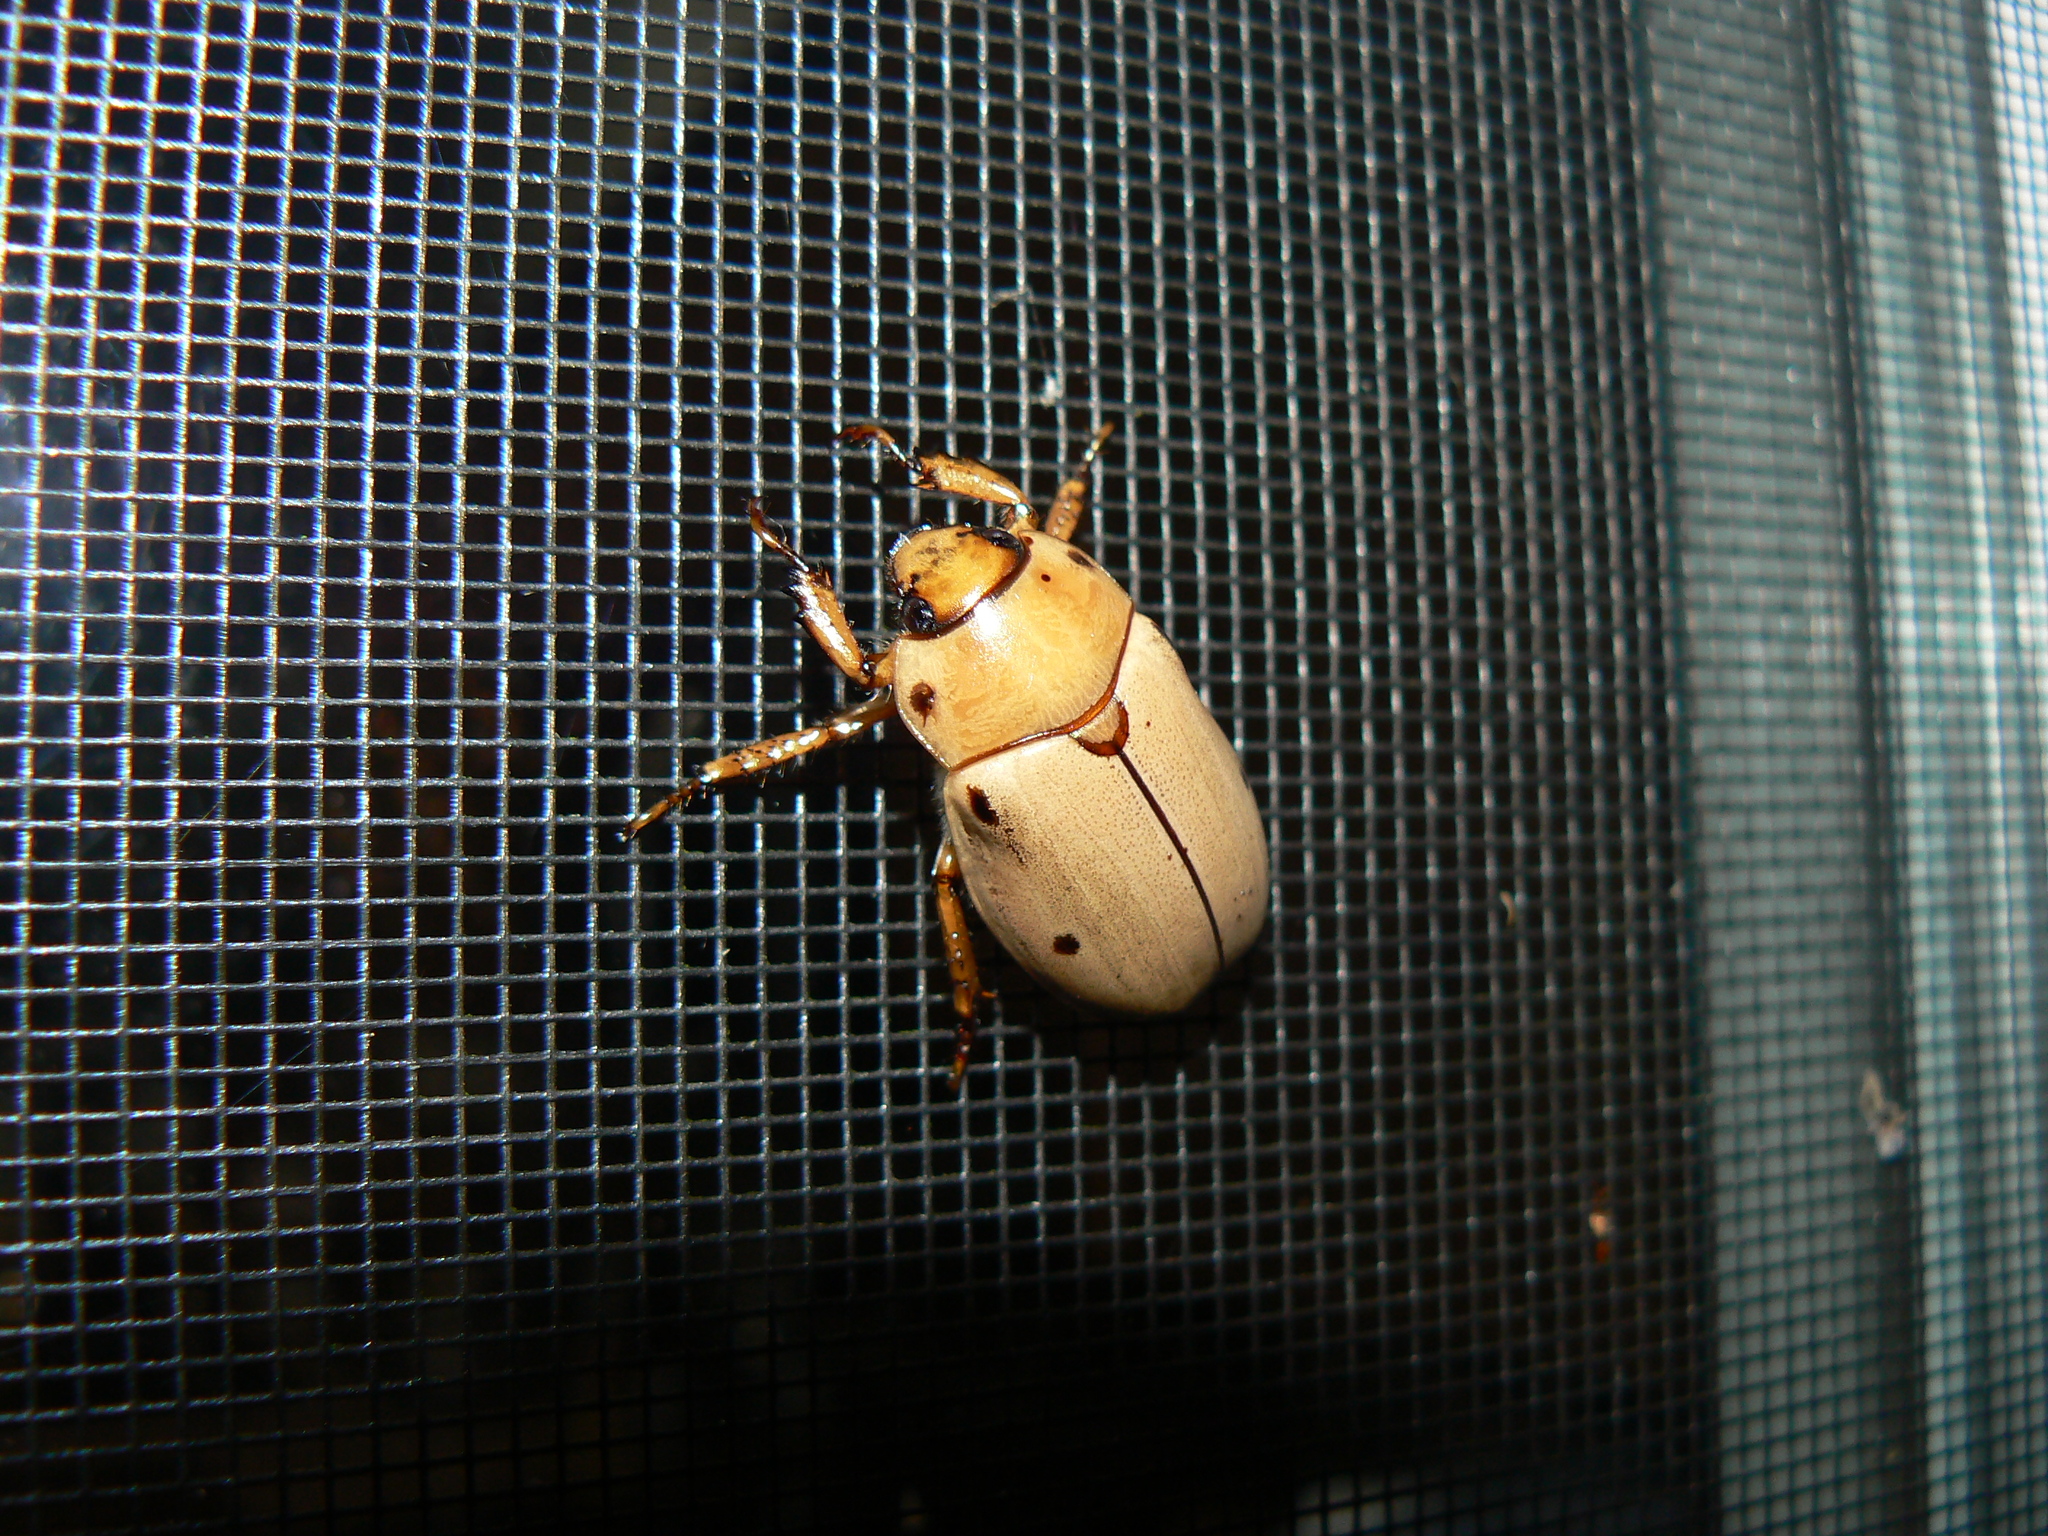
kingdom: Animalia
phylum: Arthropoda
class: Insecta
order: Coleoptera
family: Scarabaeidae
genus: Pelidnota
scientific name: Pelidnota punctata
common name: Grapevine beetle
